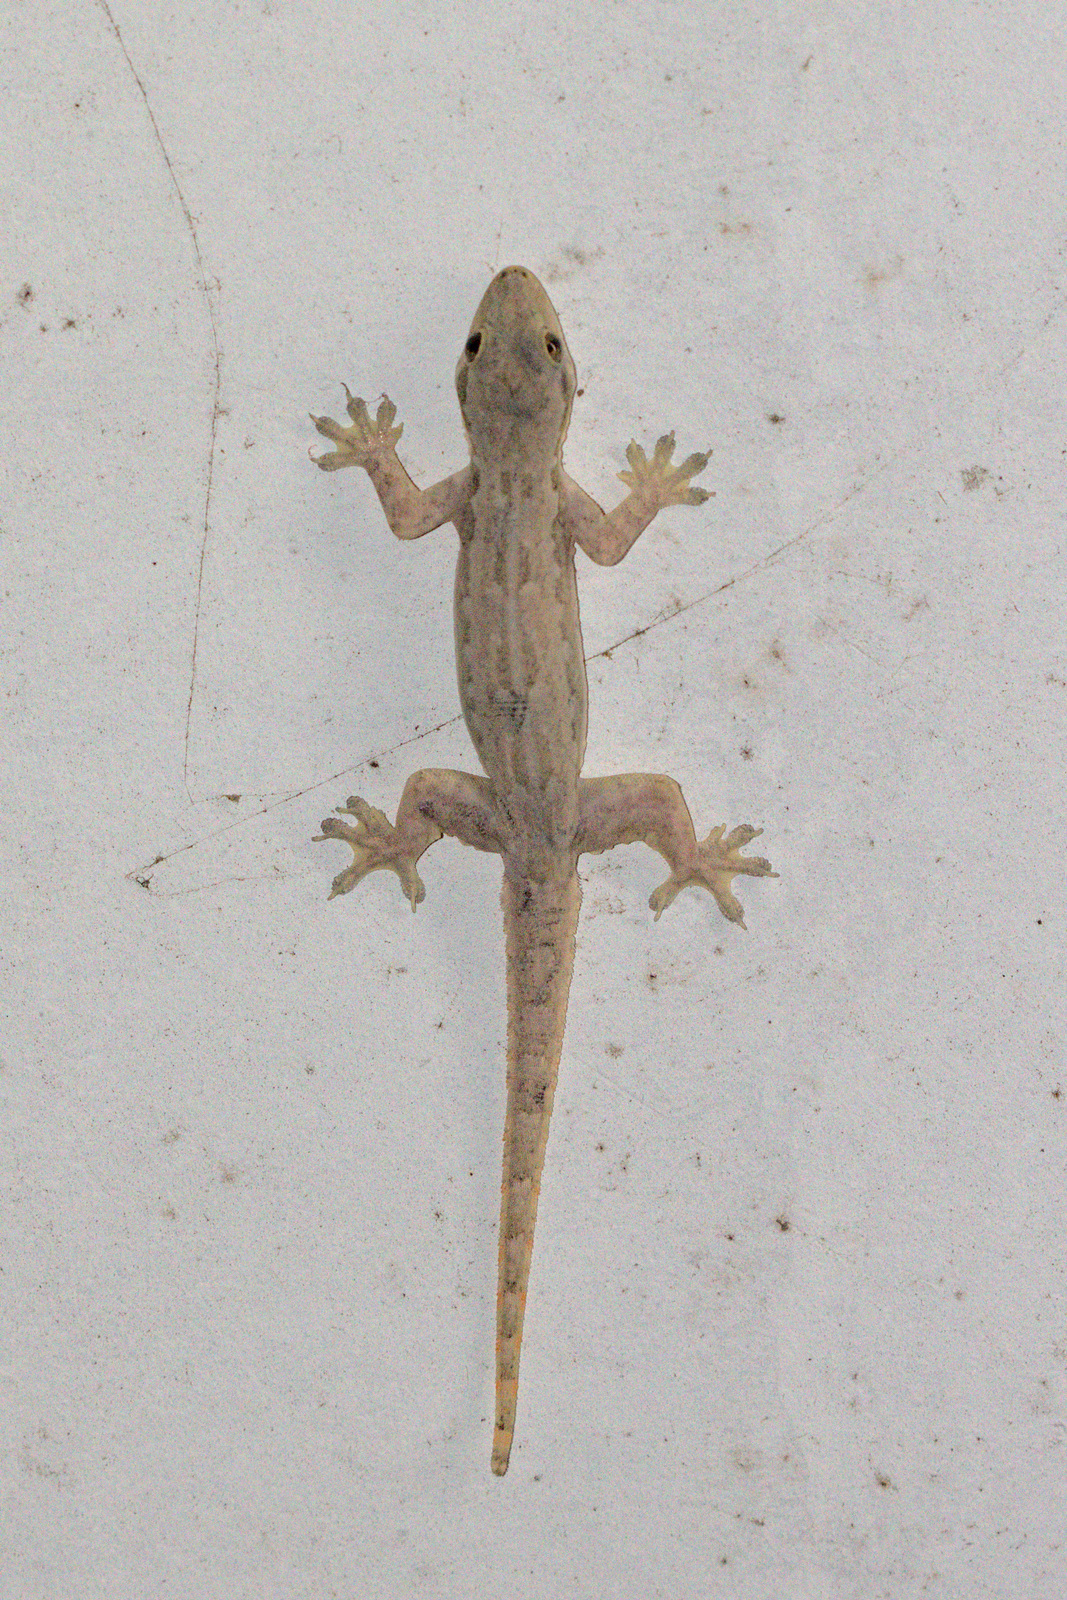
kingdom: Animalia
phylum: Chordata
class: Squamata
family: Gekkonidae
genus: Hemidactylus
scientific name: Hemidactylus platyurus
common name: Flat-tailed house gecko
